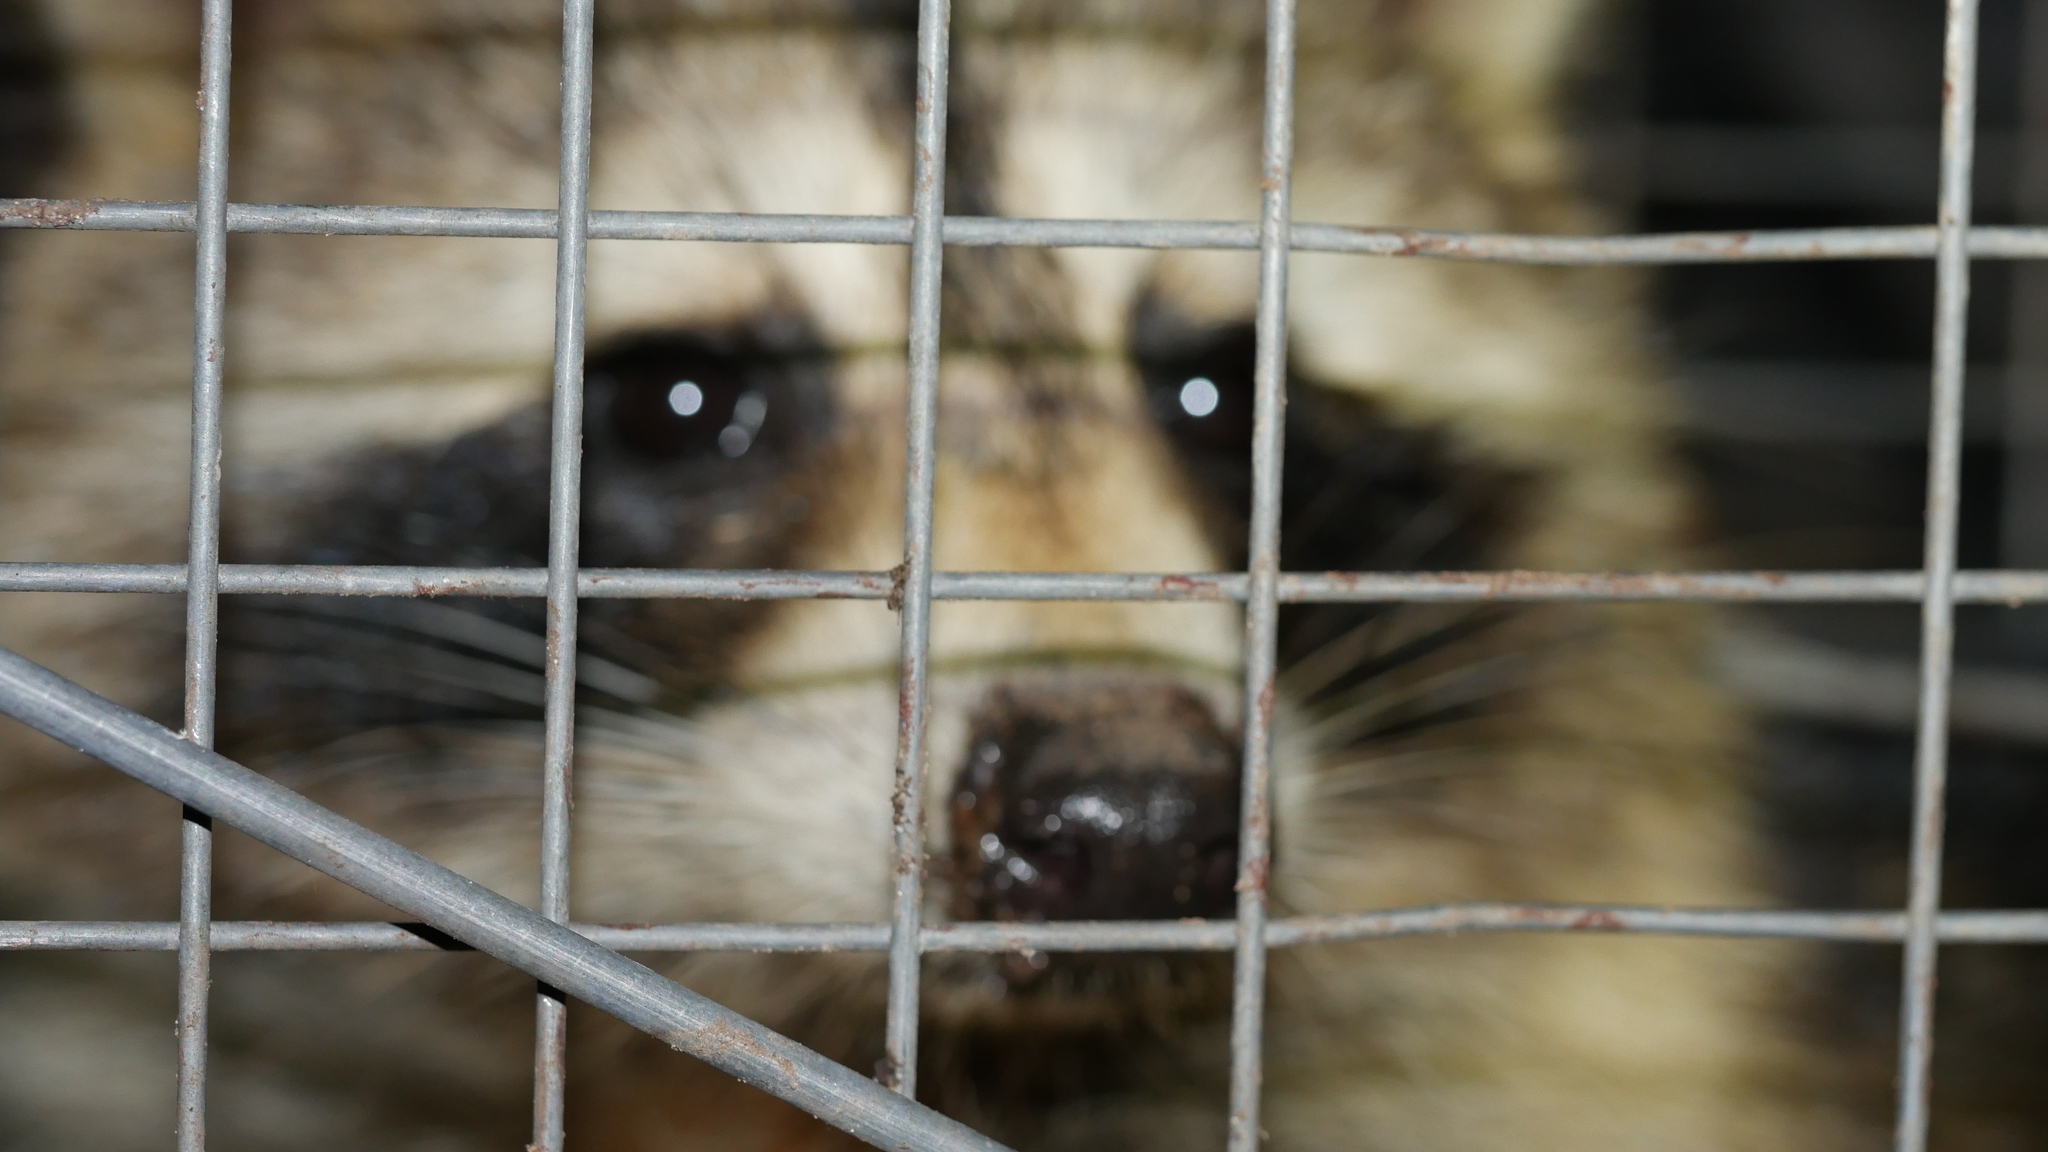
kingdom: Animalia
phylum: Chordata
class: Mammalia
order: Carnivora
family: Procyonidae
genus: Procyon
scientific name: Procyon lotor
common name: Raccoon
